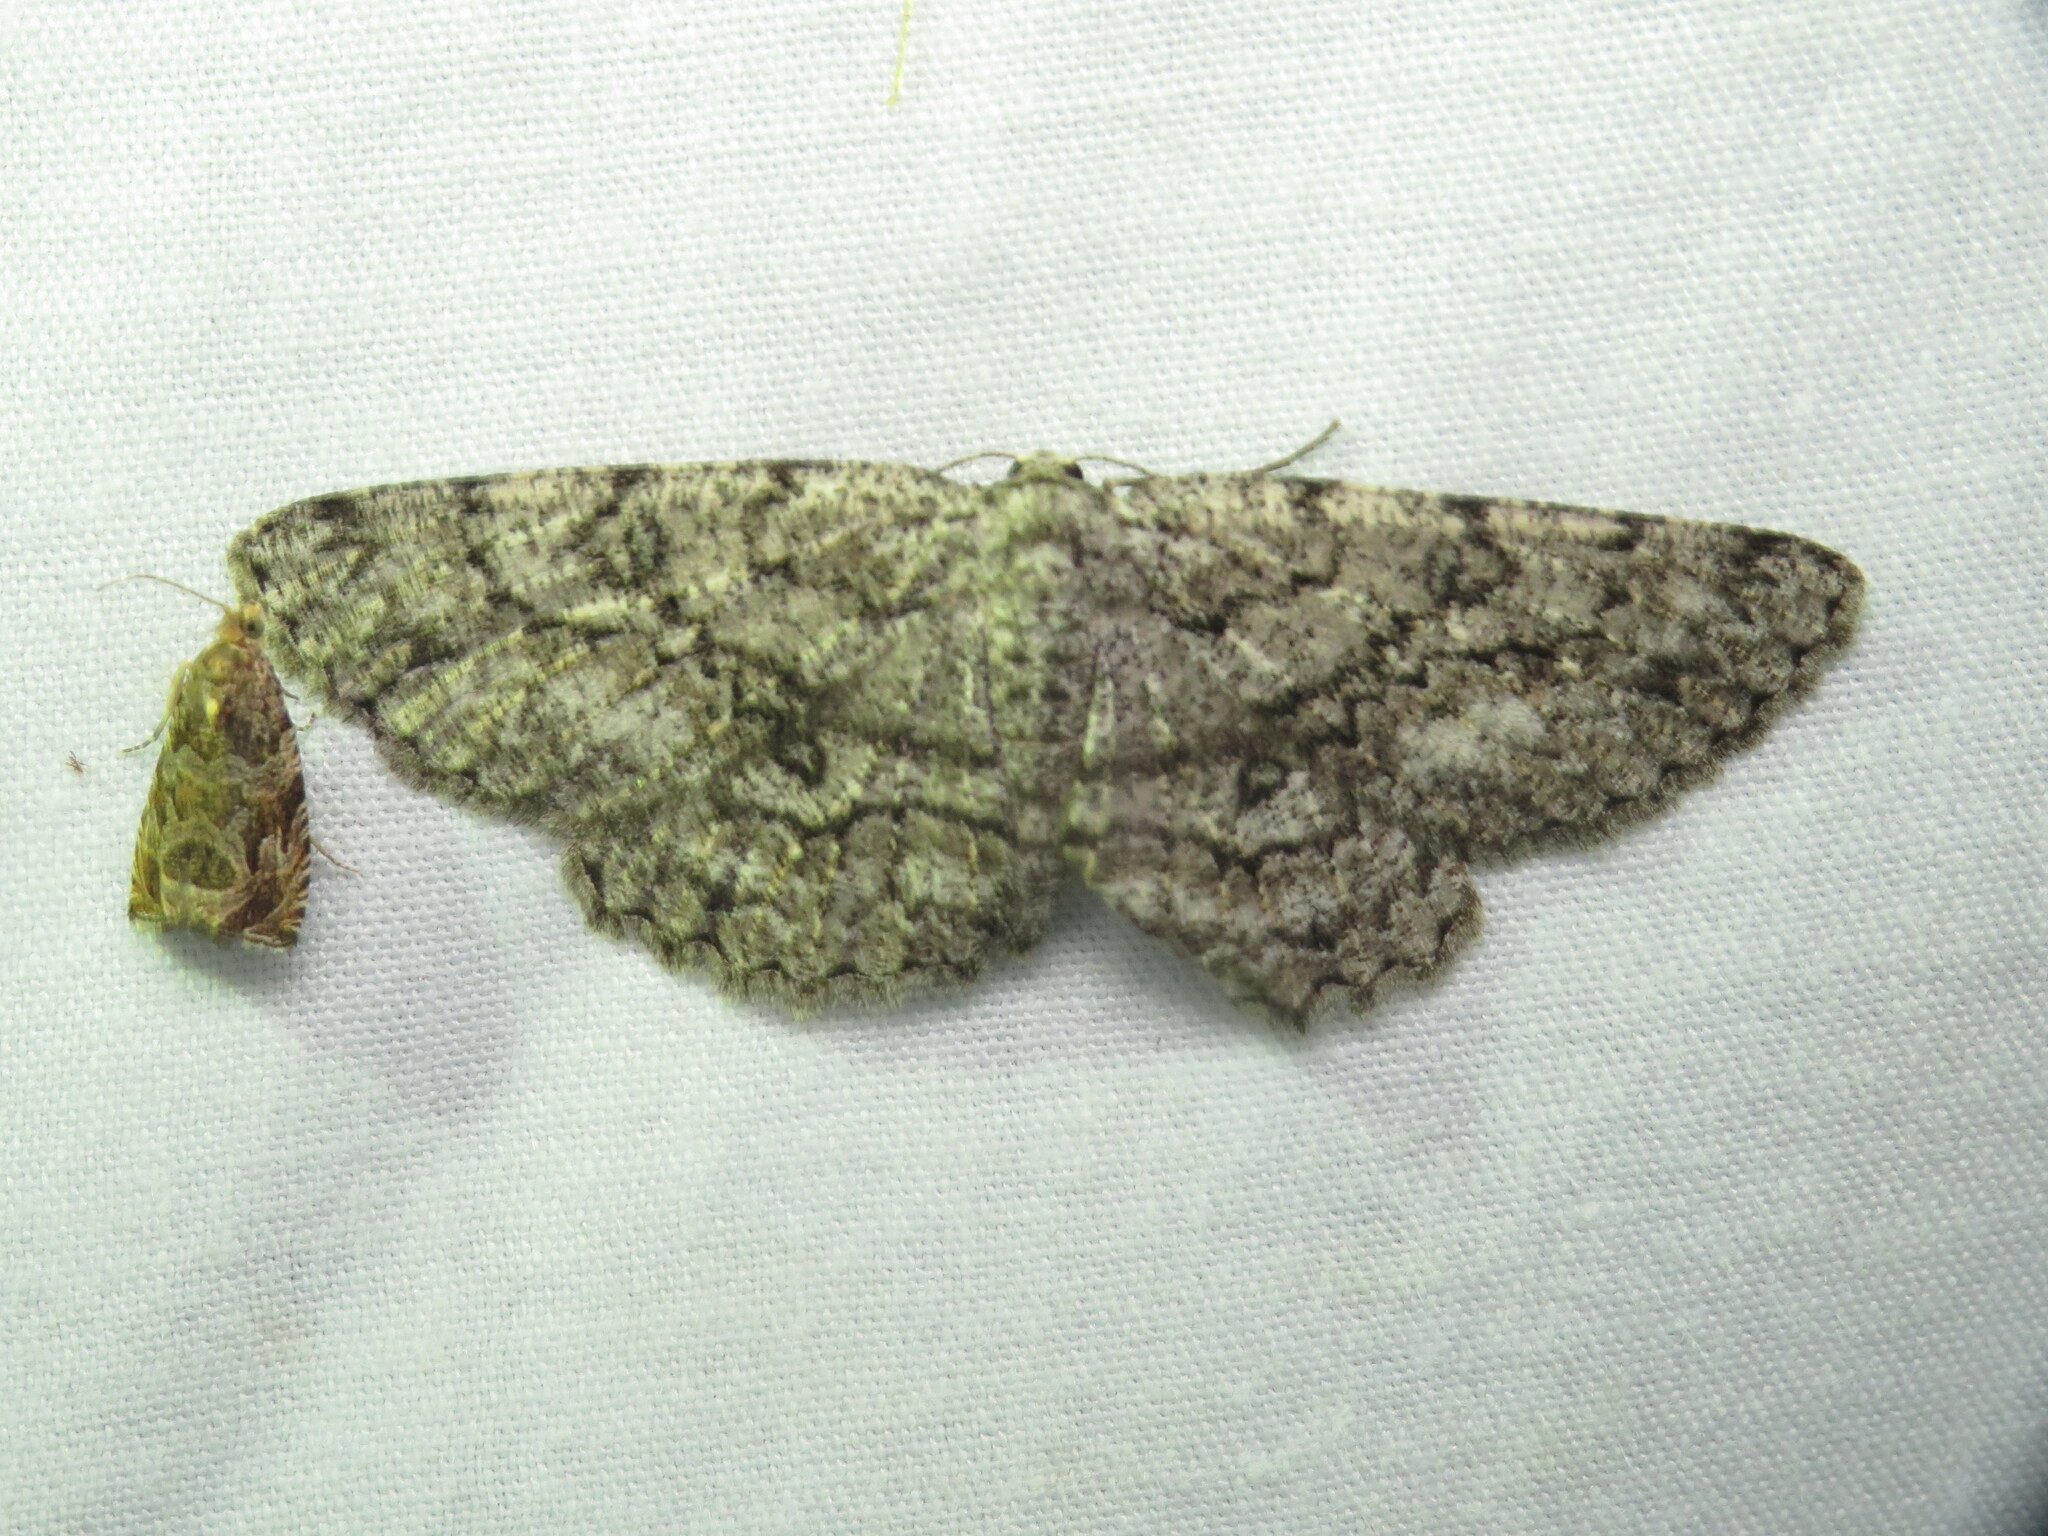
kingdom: Animalia
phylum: Arthropoda
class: Insecta
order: Lepidoptera
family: Geometridae
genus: Hypomecis
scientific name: Hypomecis umbrosaria
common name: Umber moth
